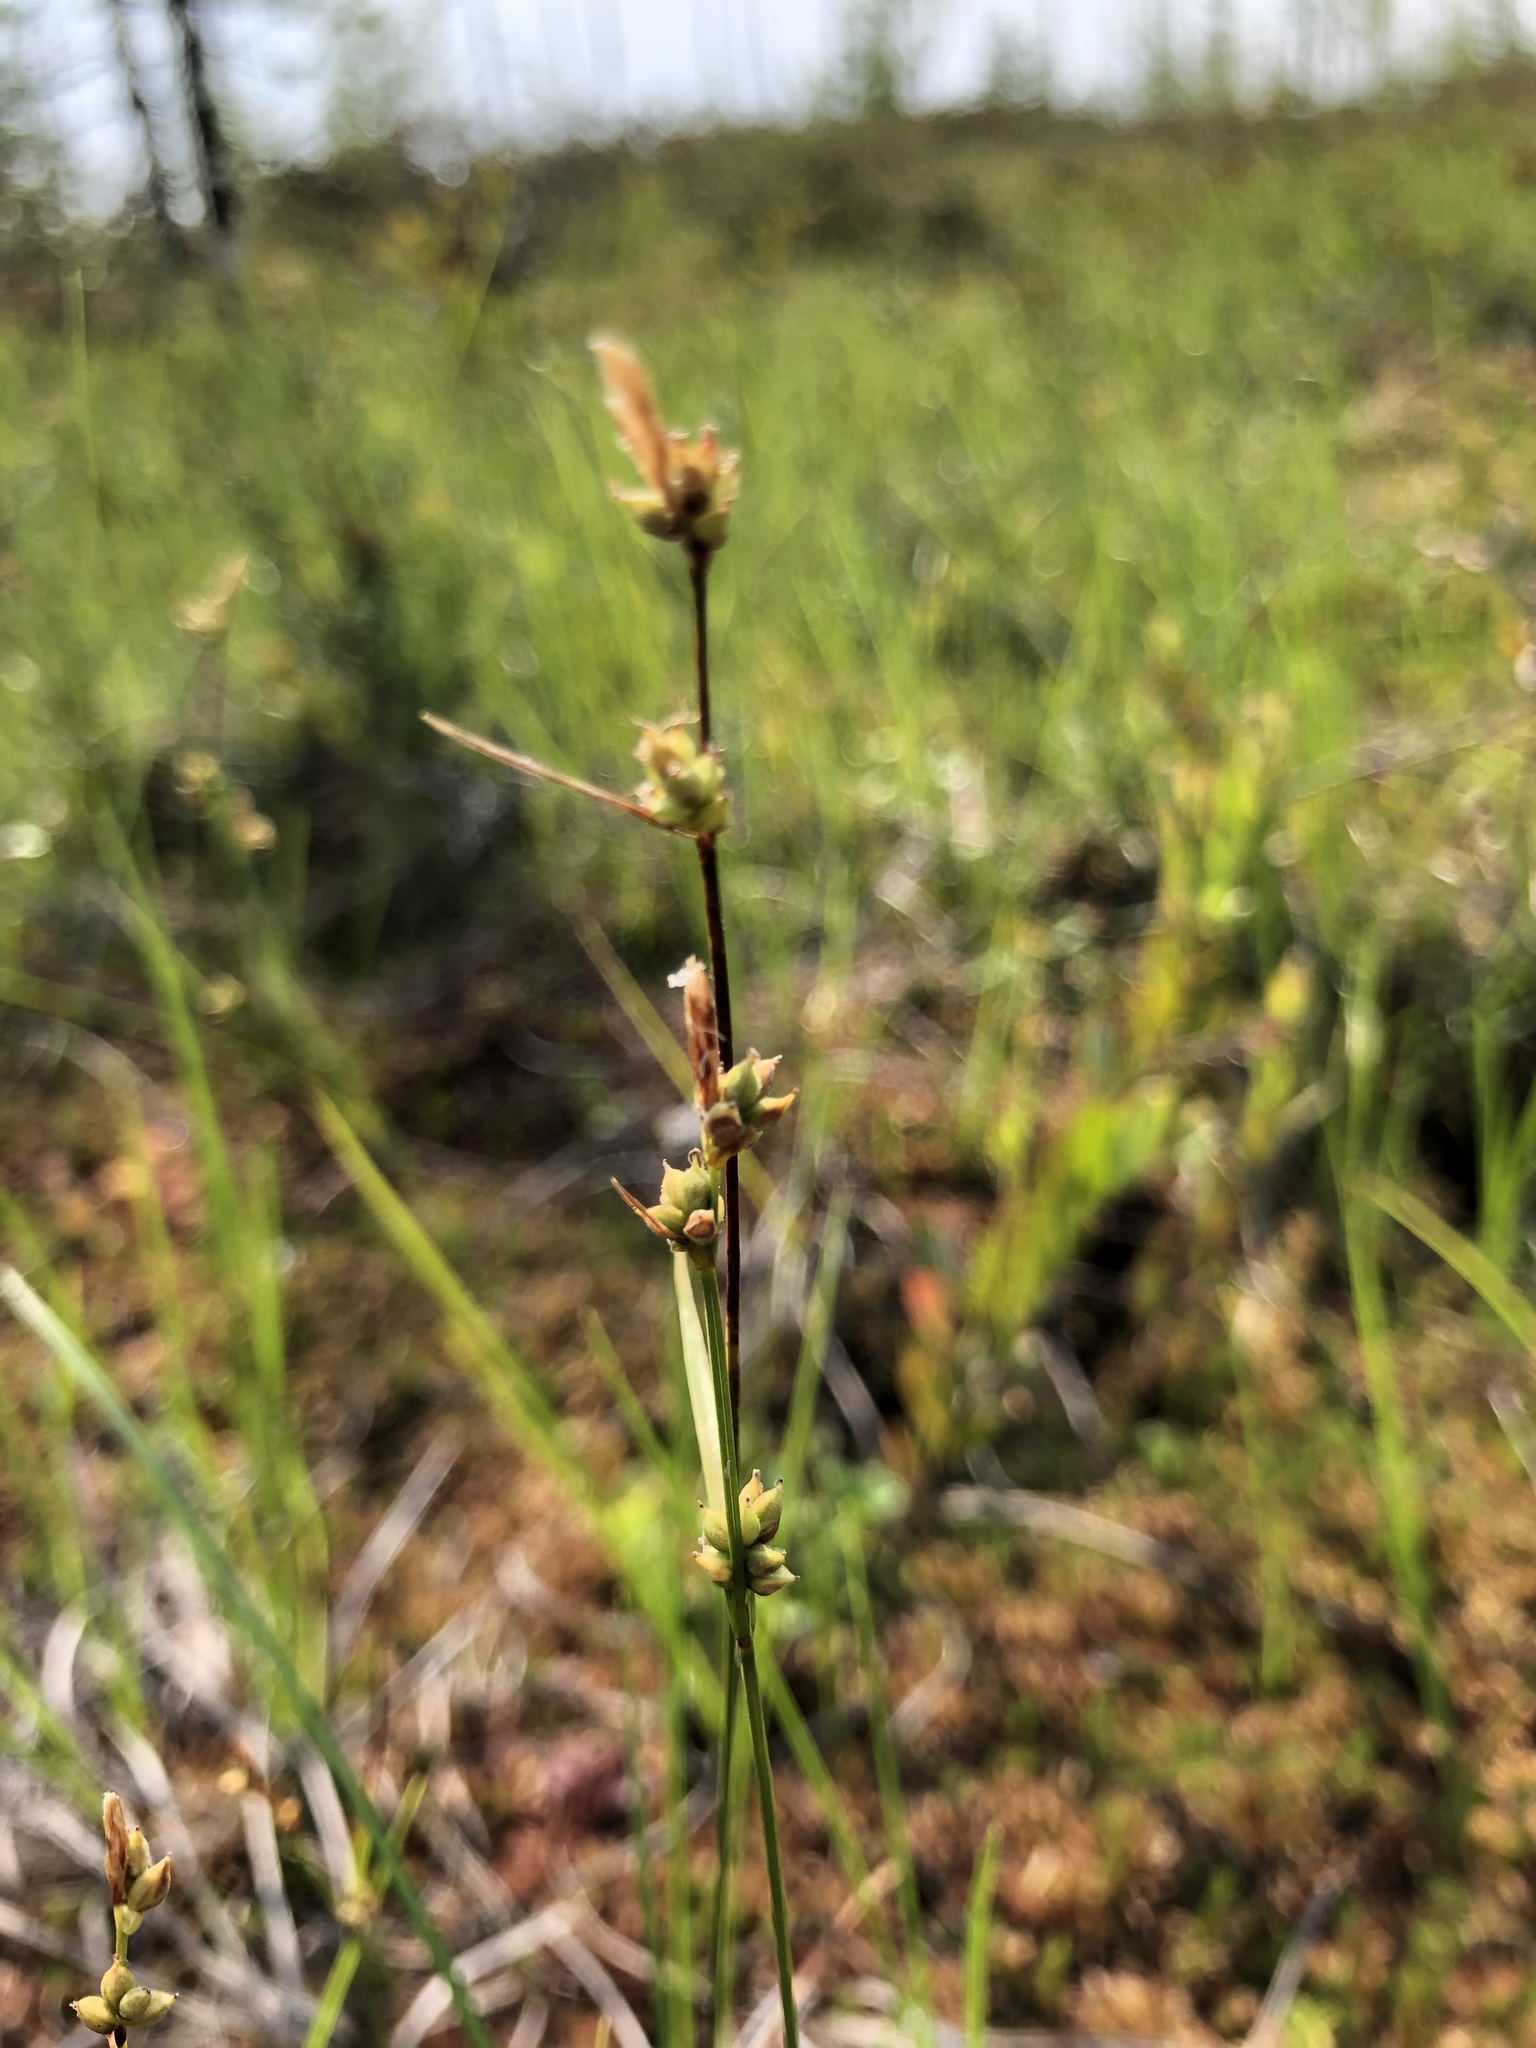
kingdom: Plantae
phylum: Tracheophyta
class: Liliopsida
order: Poales
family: Cyperaceae
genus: Carex
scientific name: Carex globularis
